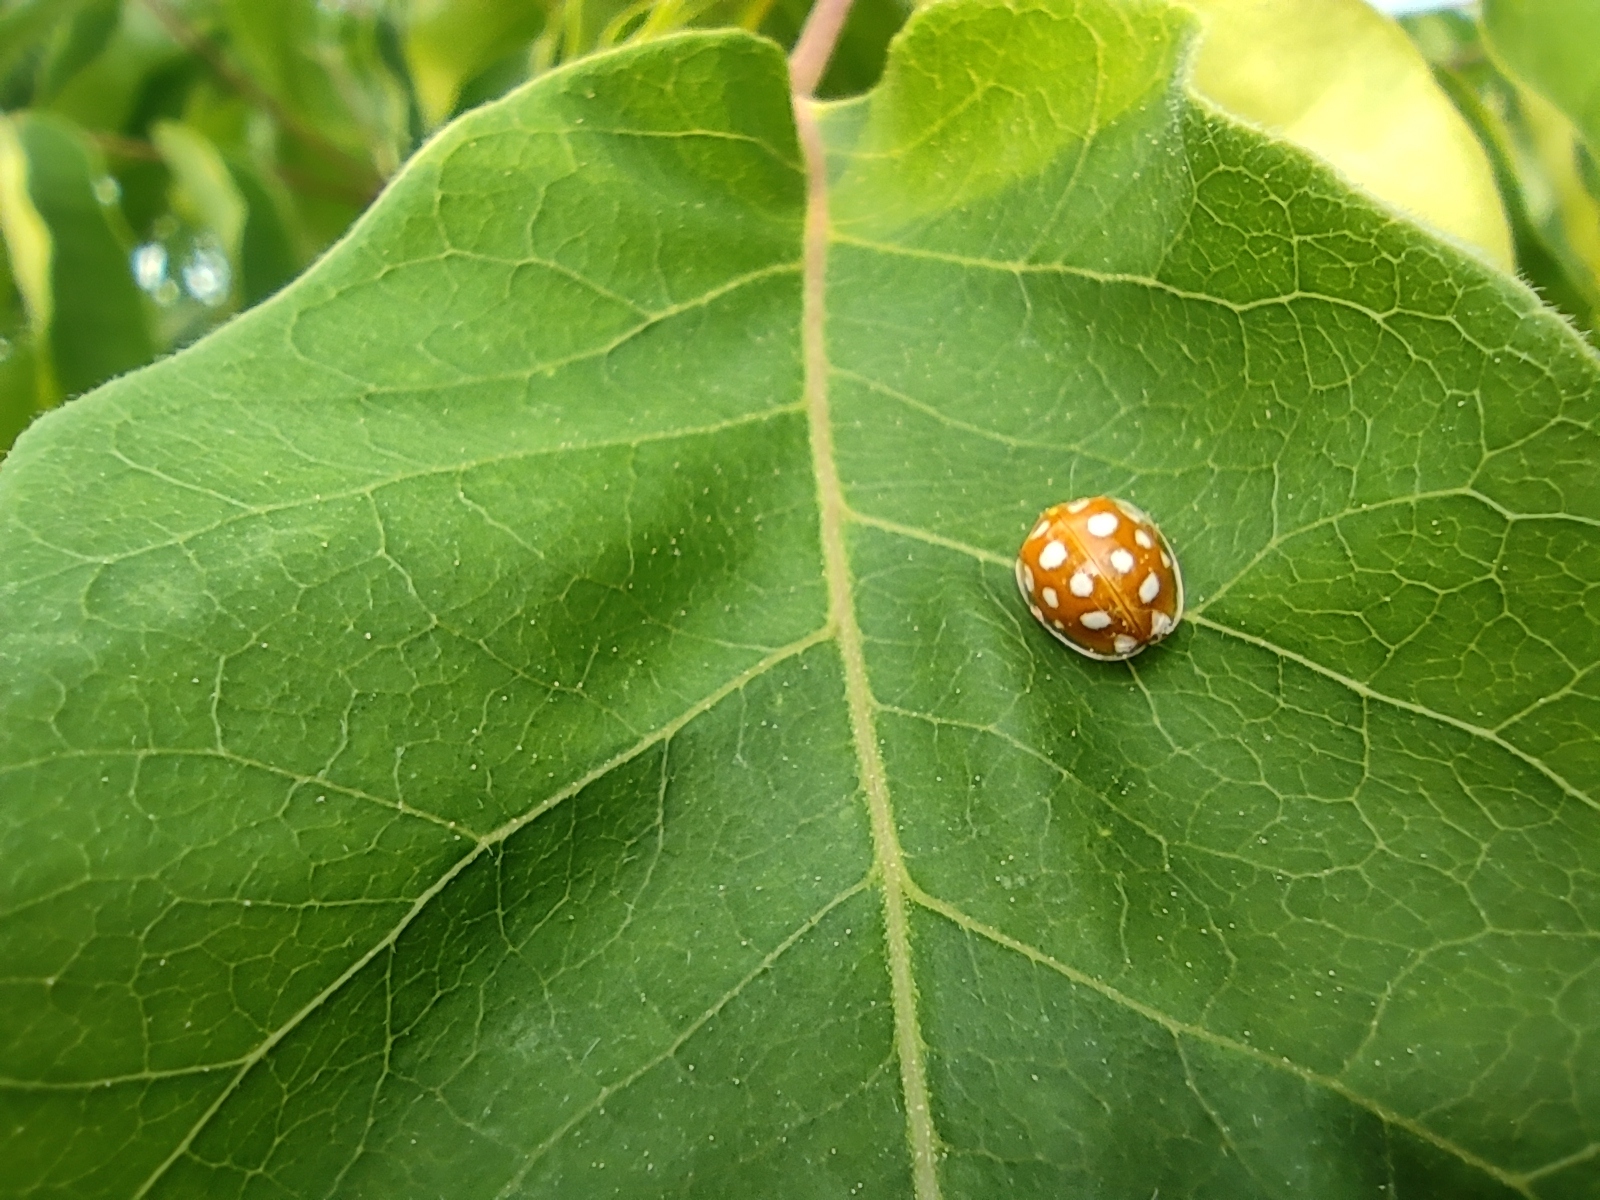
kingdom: Animalia
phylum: Arthropoda
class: Insecta
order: Coleoptera
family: Coccinellidae
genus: Halyzia
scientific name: Halyzia sedecimguttata
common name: Orange ladybird
